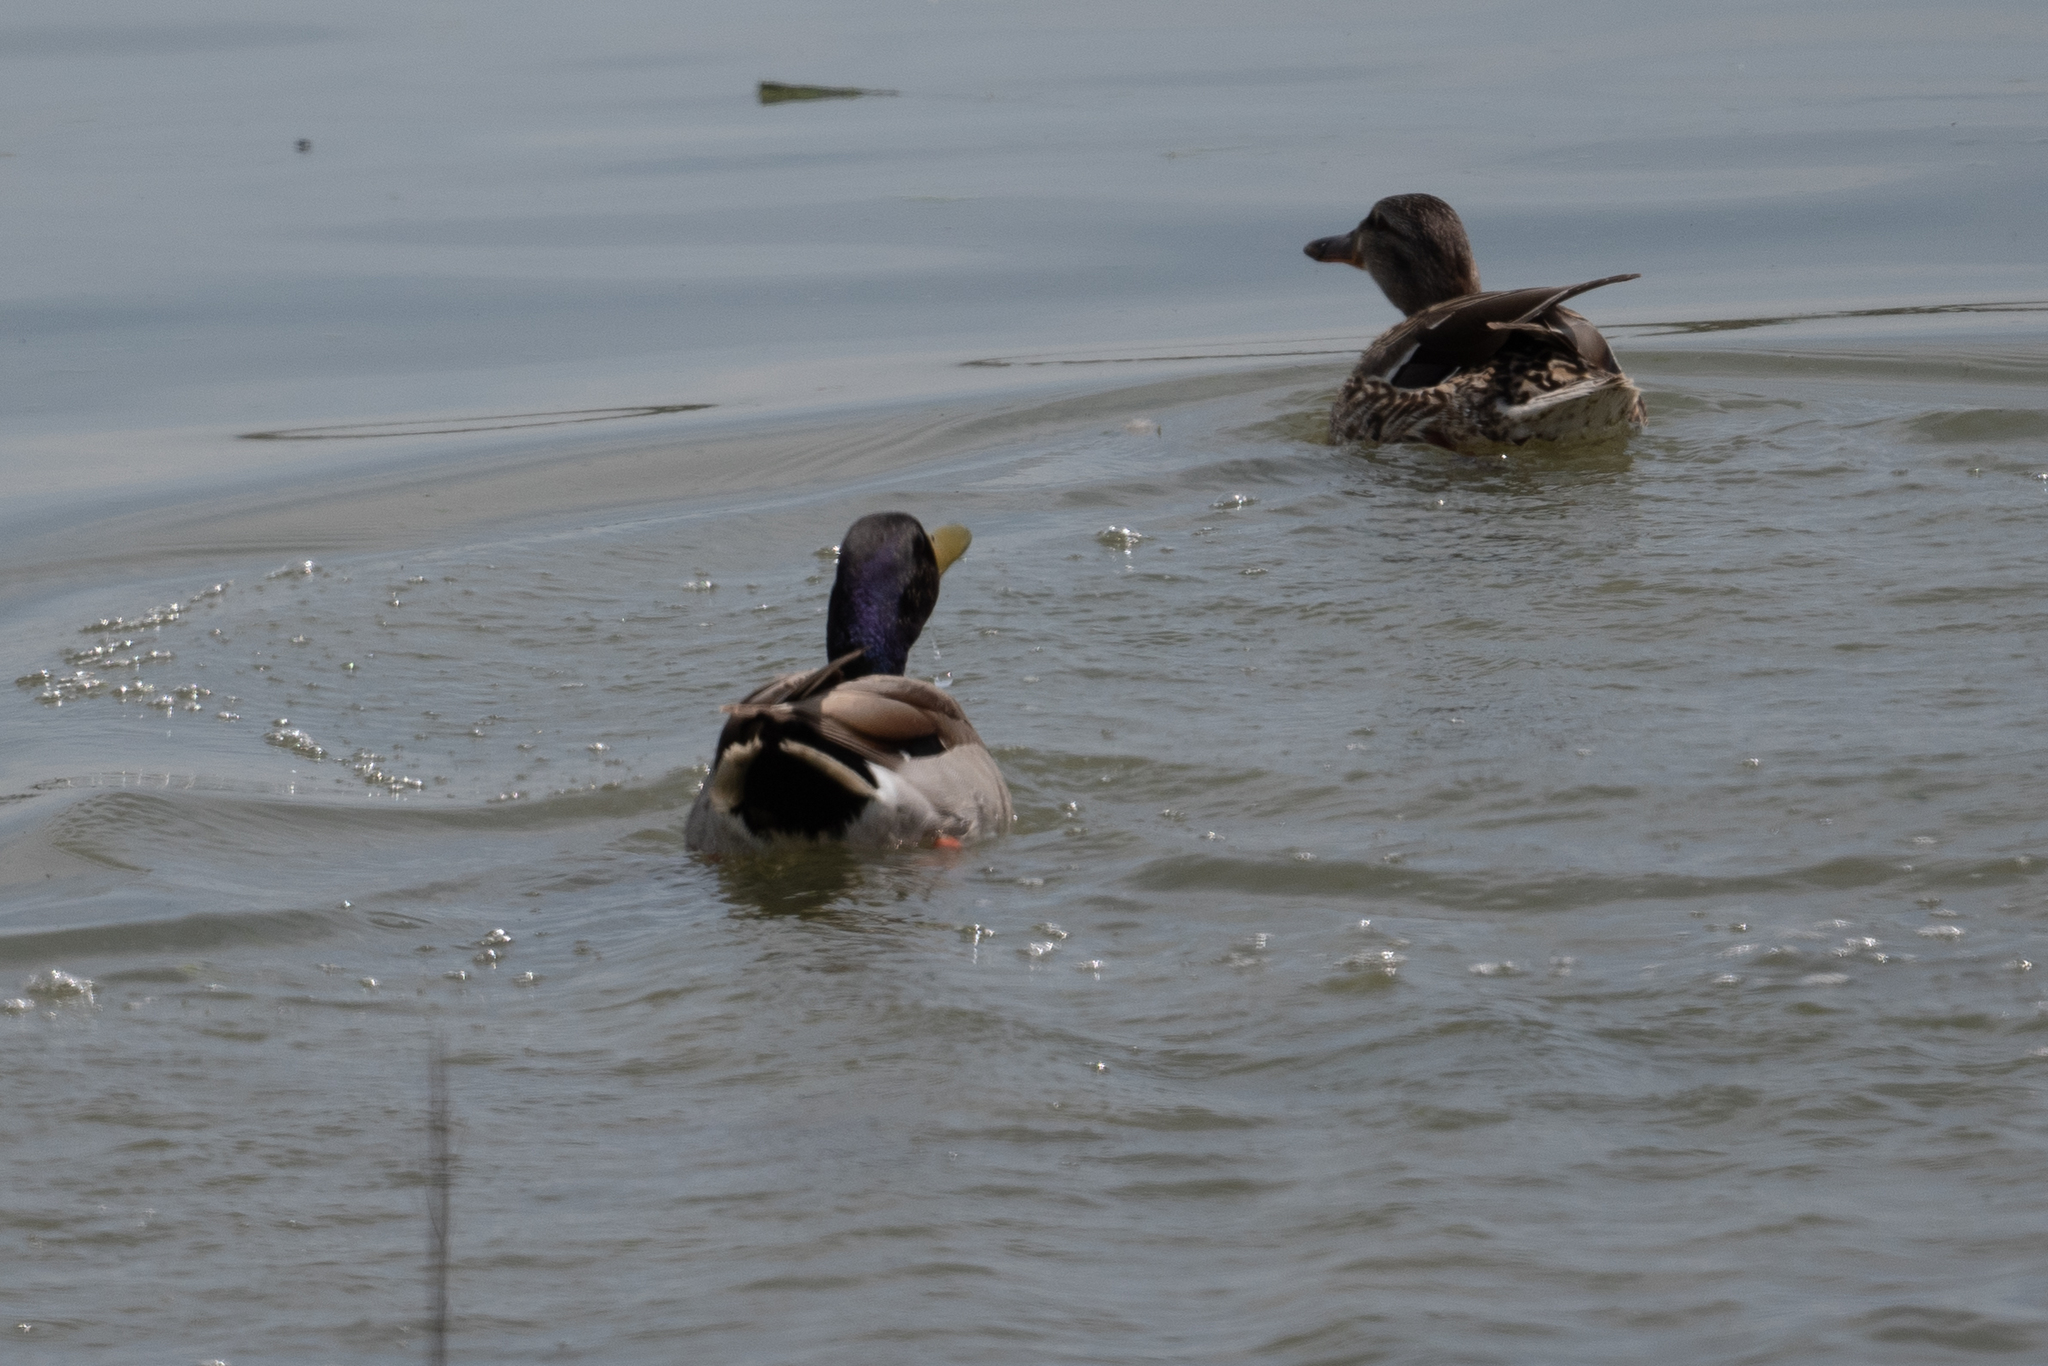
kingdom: Animalia
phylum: Chordata
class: Aves
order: Anseriformes
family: Anatidae
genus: Anas
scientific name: Anas platyrhynchos
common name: Mallard
